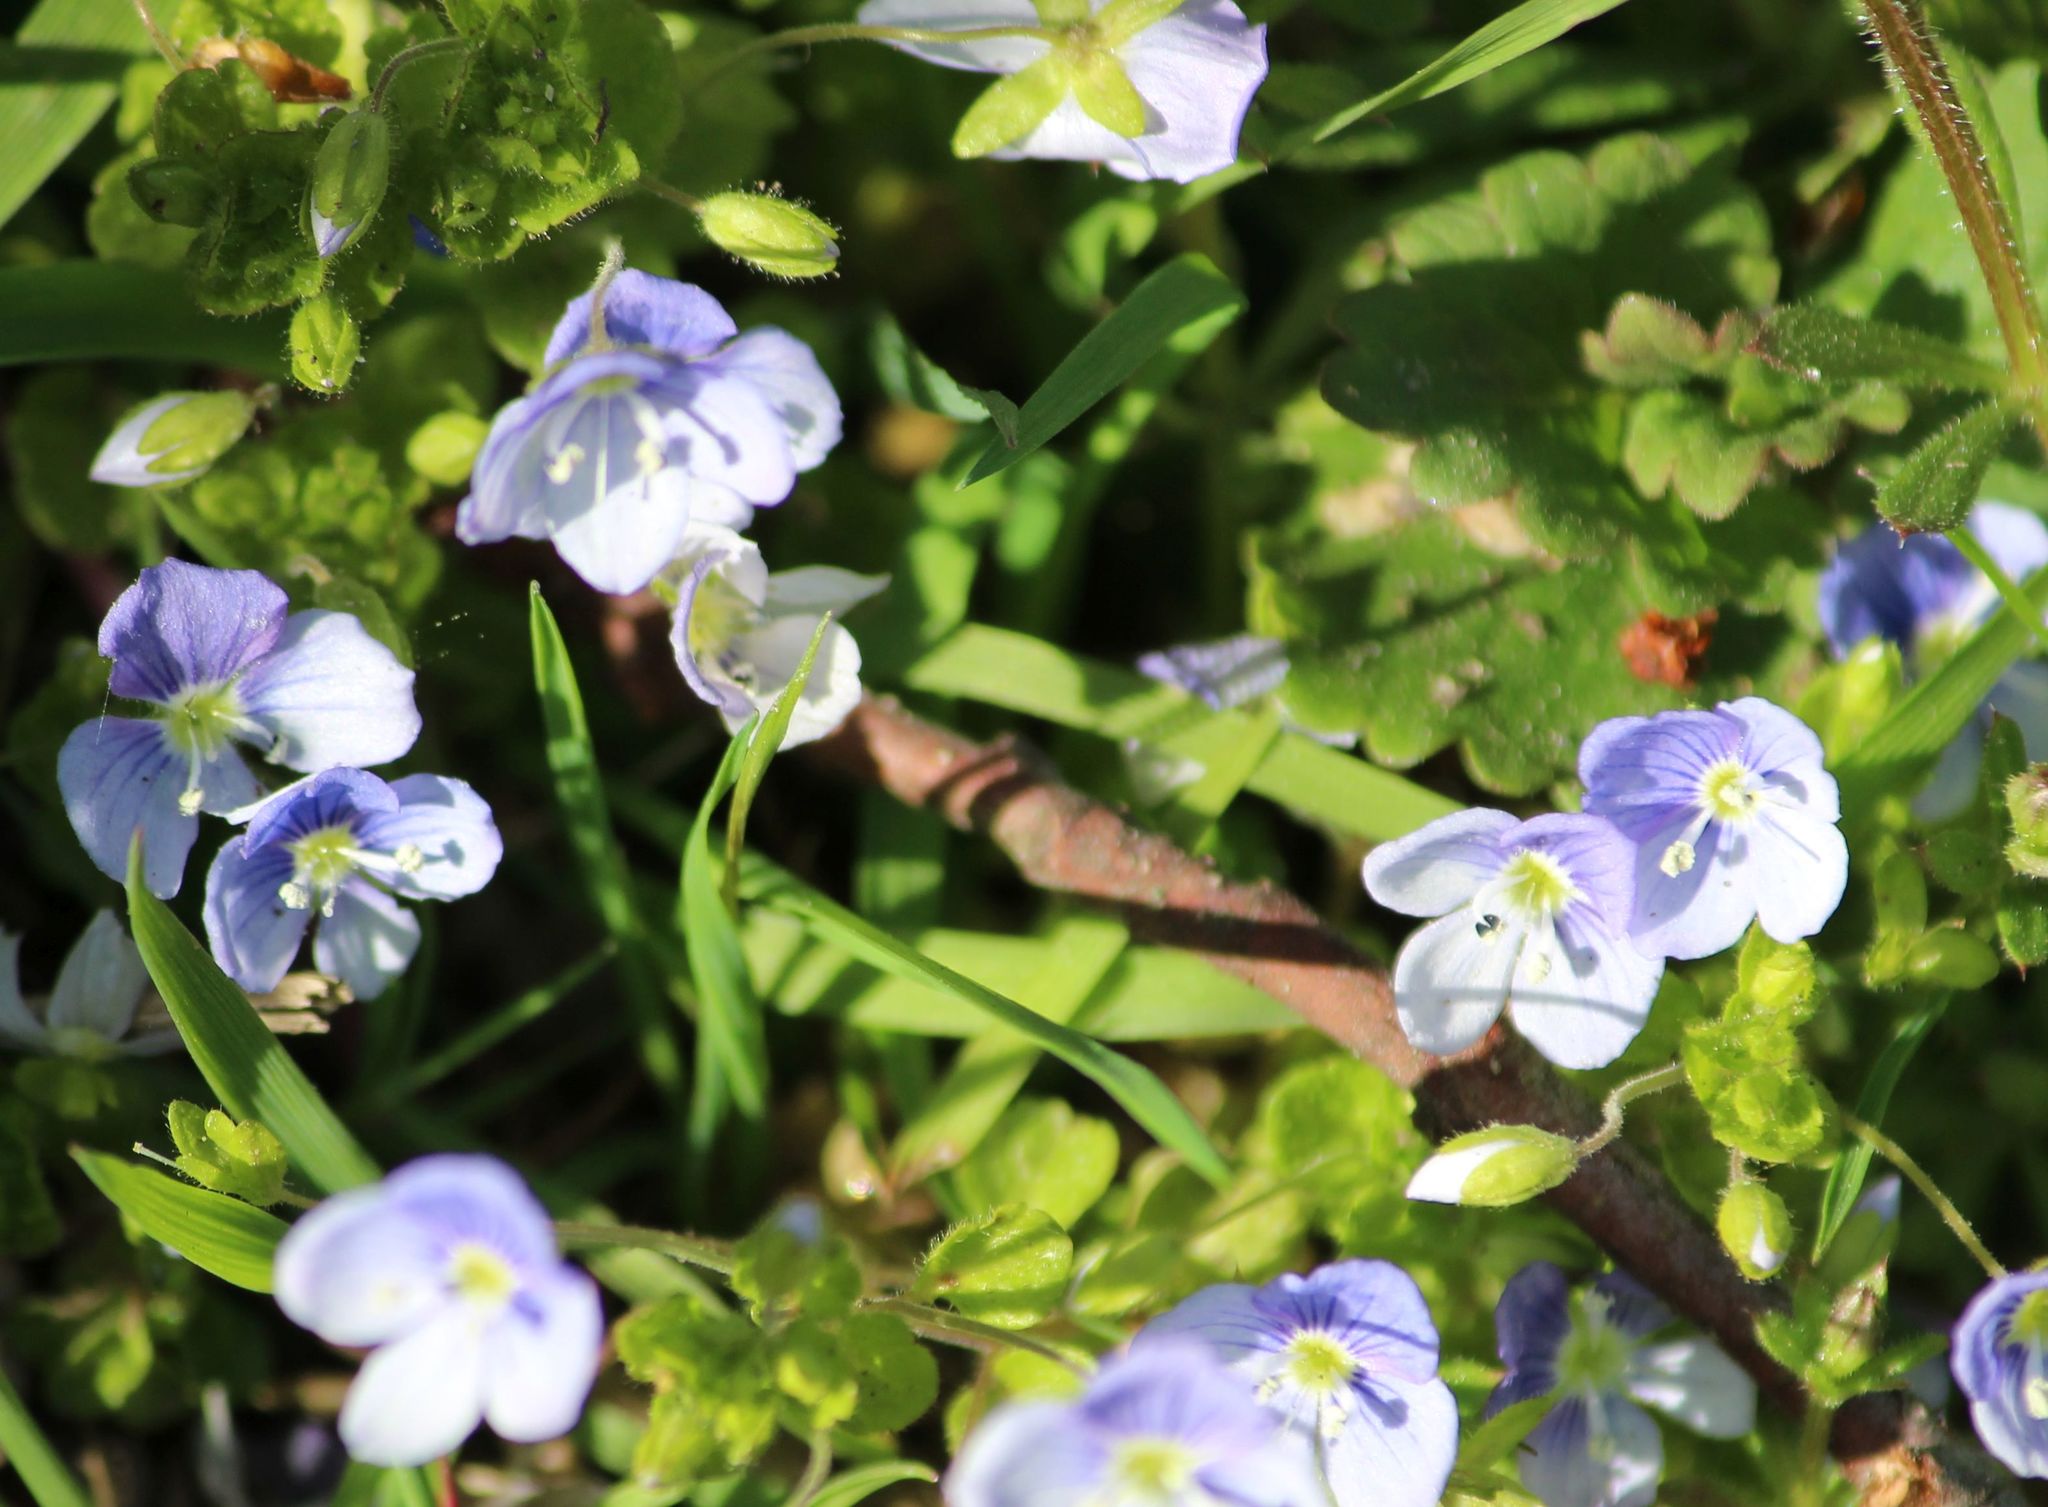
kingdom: Plantae
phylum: Tracheophyta
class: Magnoliopsida
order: Lamiales
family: Plantaginaceae
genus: Veronica
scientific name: Veronica filiformis
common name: Slender speedwell
